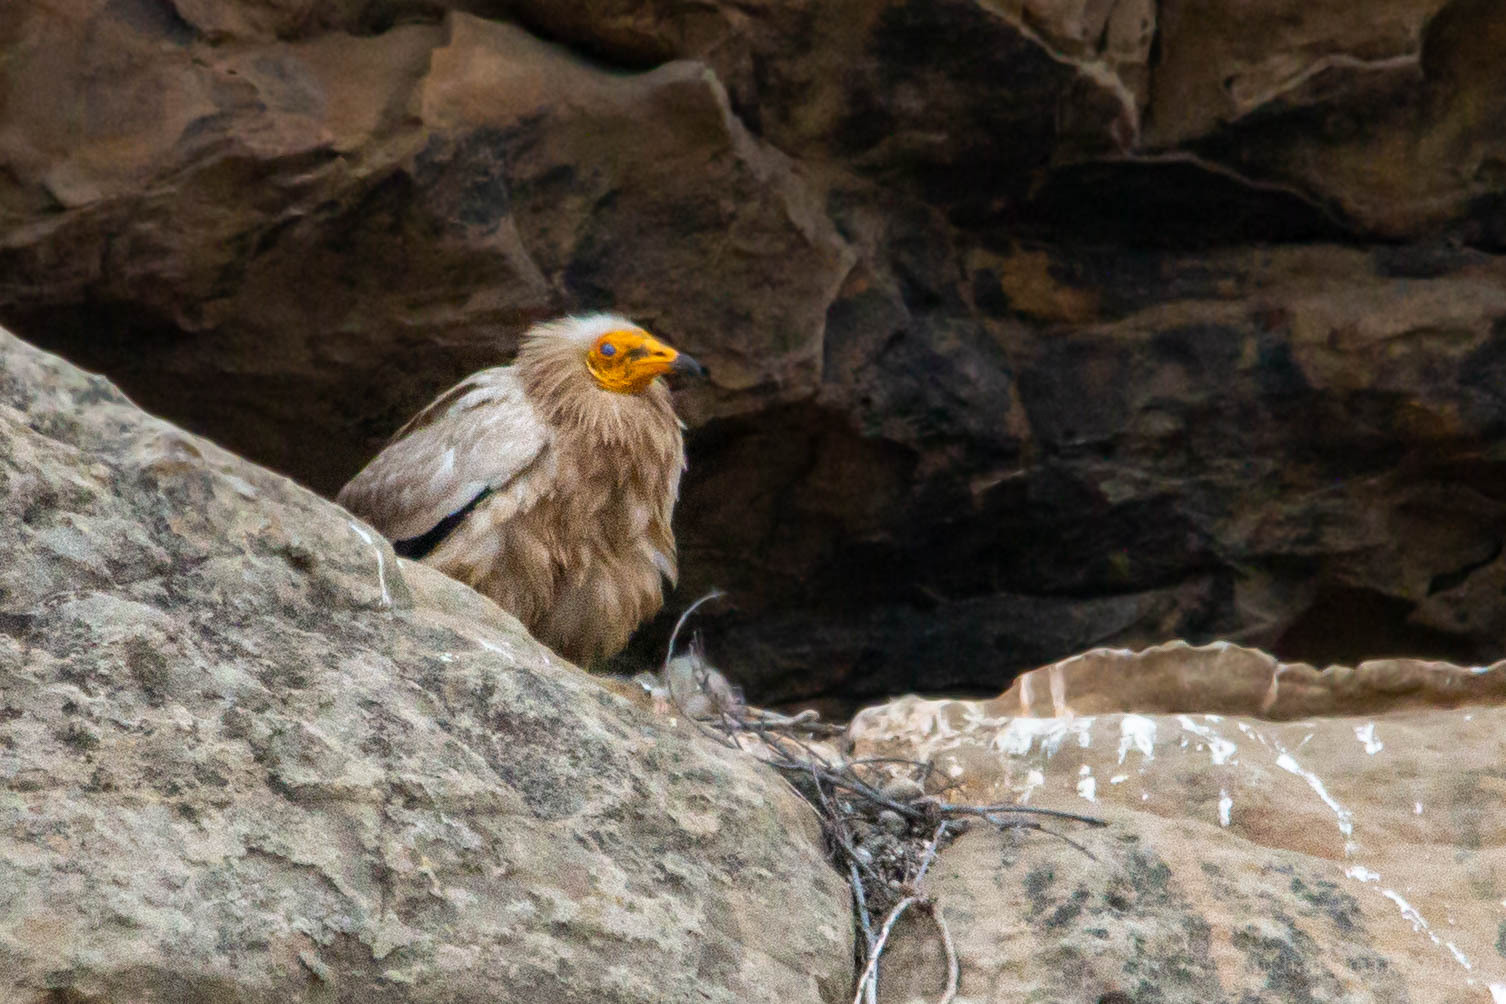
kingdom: Animalia
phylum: Chordata
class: Aves
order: Accipitriformes
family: Accipitridae
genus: Neophron
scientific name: Neophron percnopterus
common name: Egyptian vulture
